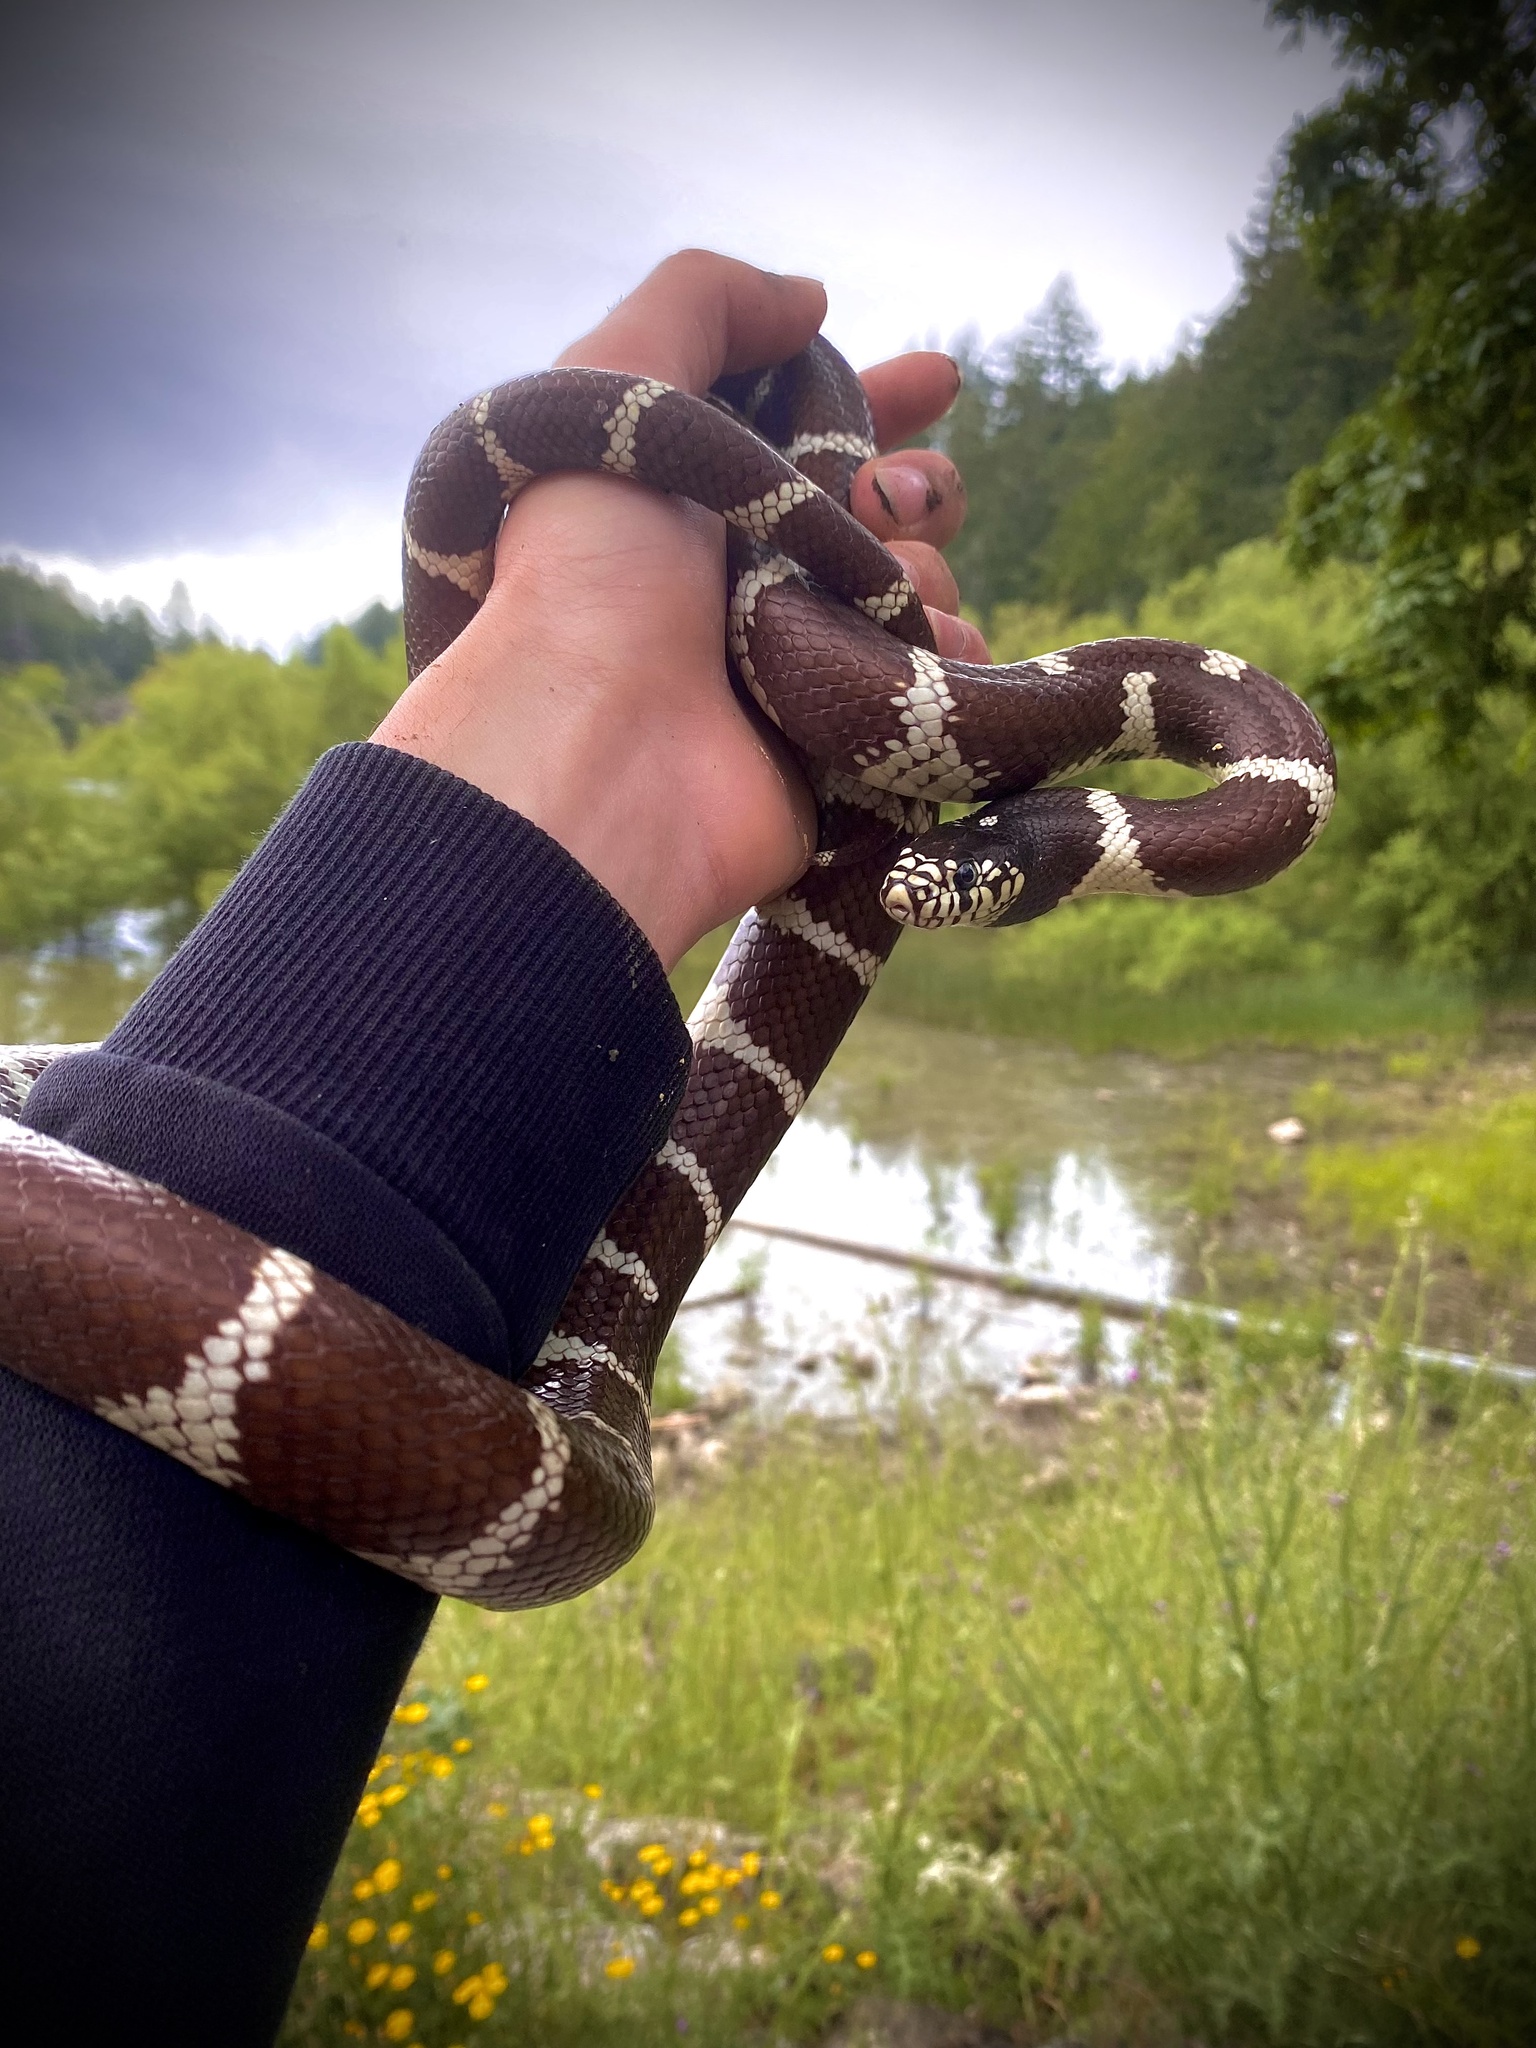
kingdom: Animalia
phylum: Chordata
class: Squamata
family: Colubridae
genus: Lampropeltis
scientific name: Lampropeltis californiae
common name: California kingsnake
